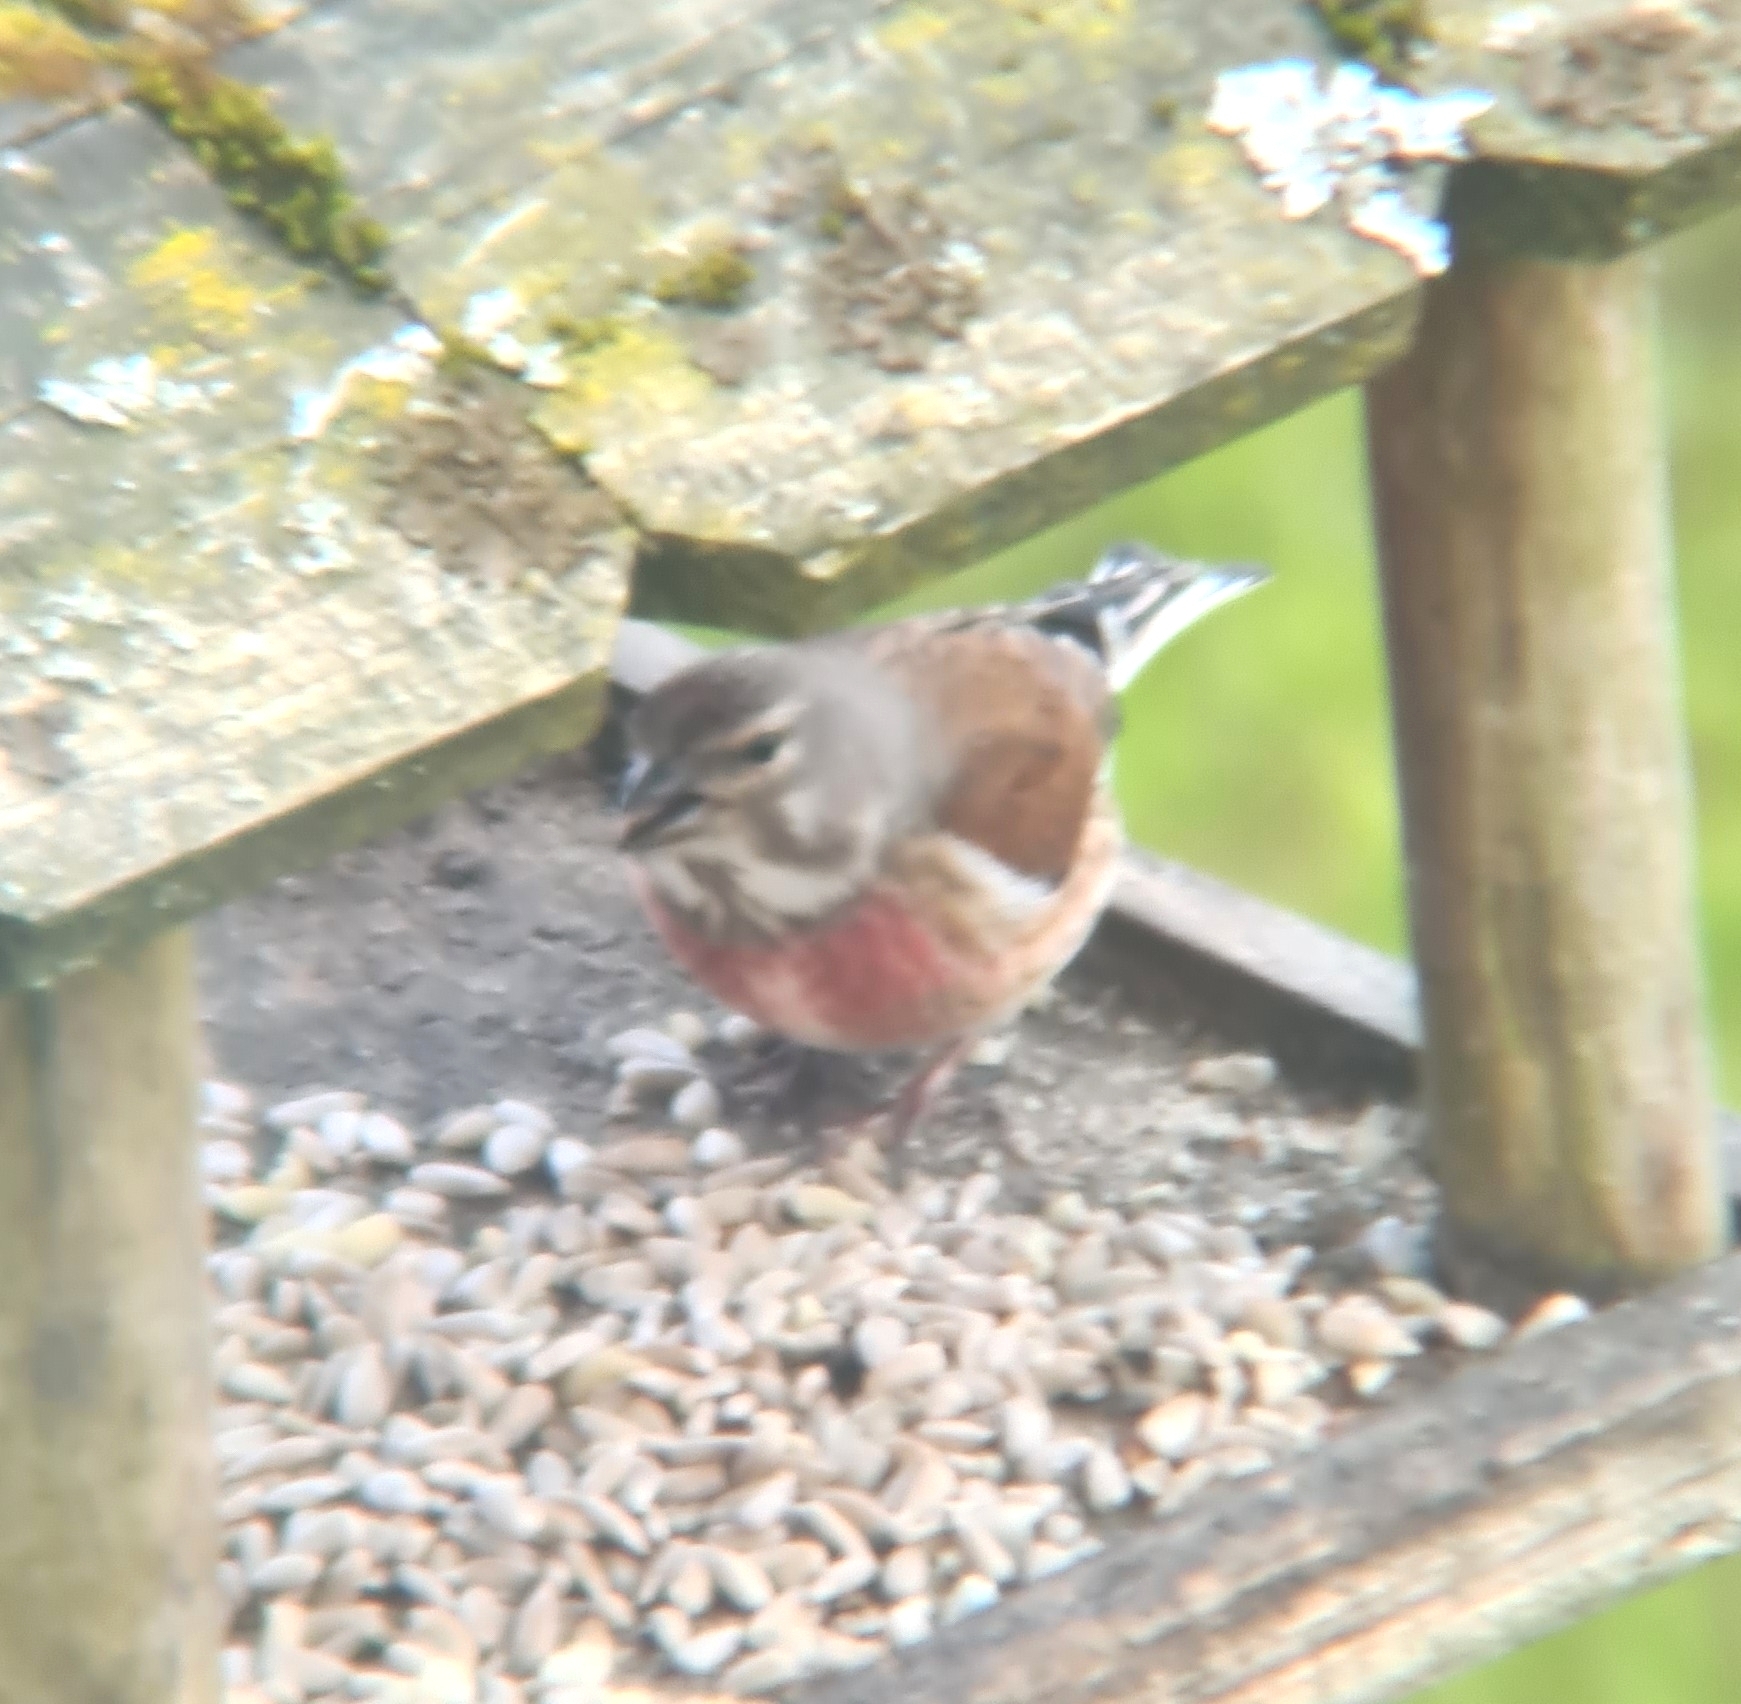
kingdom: Animalia
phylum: Chordata
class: Aves
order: Passeriformes
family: Fringillidae
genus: Linaria
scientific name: Linaria cannabina
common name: Common linnet
